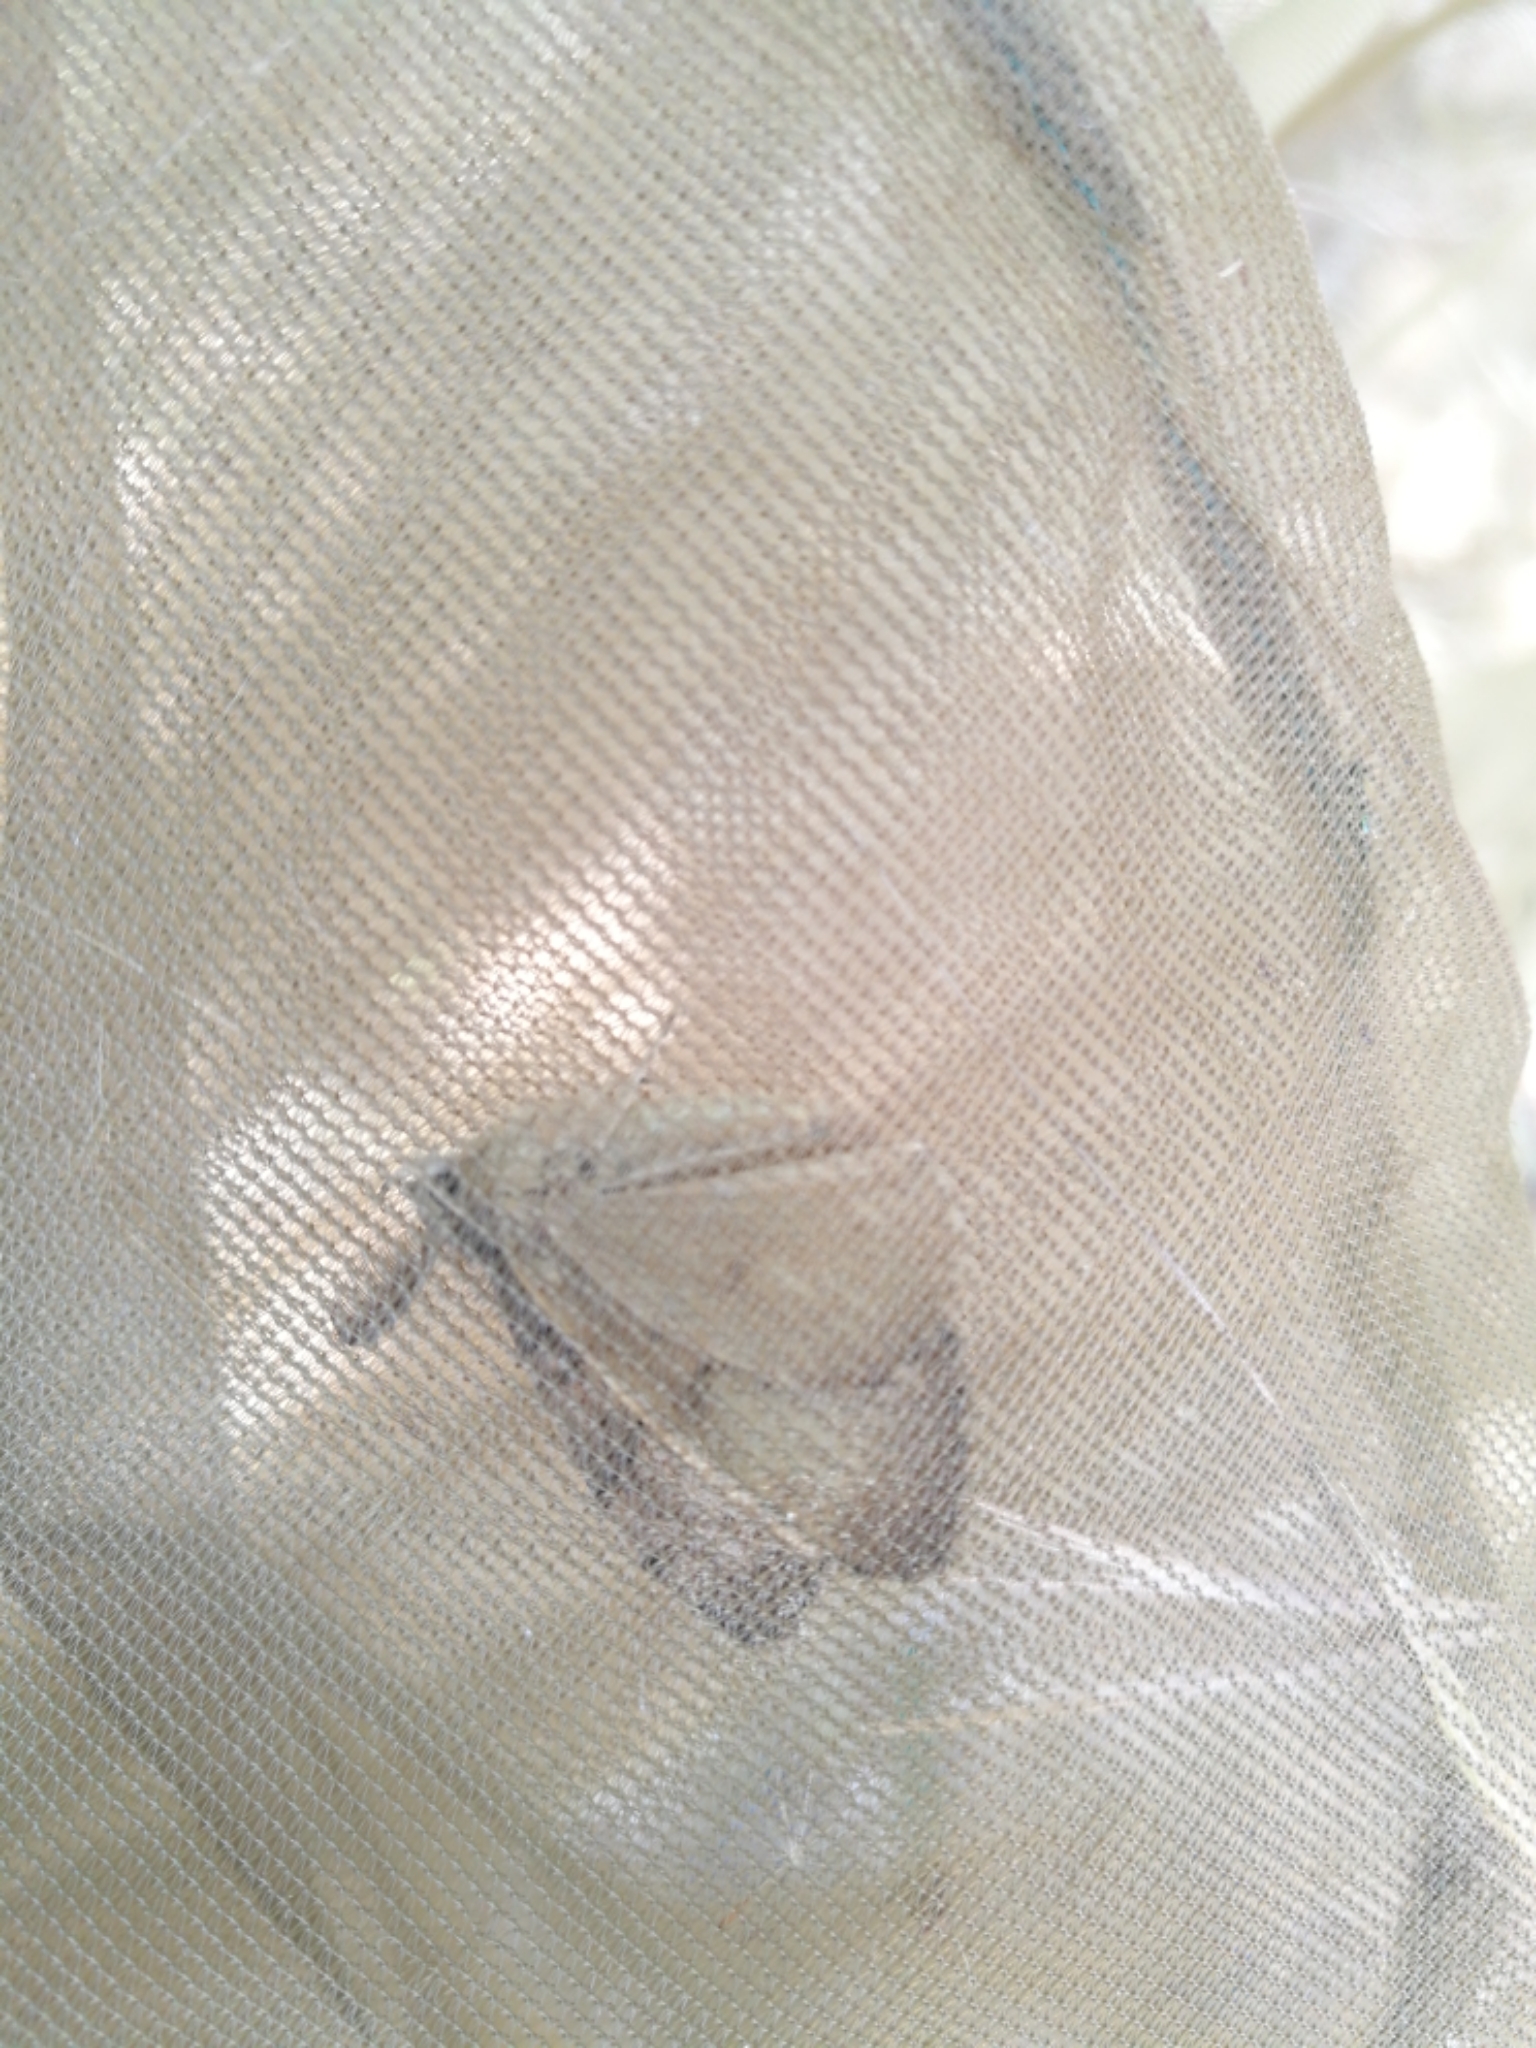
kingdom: Animalia
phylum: Arthropoda
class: Insecta
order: Lepidoptera
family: Erebidae
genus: Lymantria
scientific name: Lymantria dispar
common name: Gypsy moth
